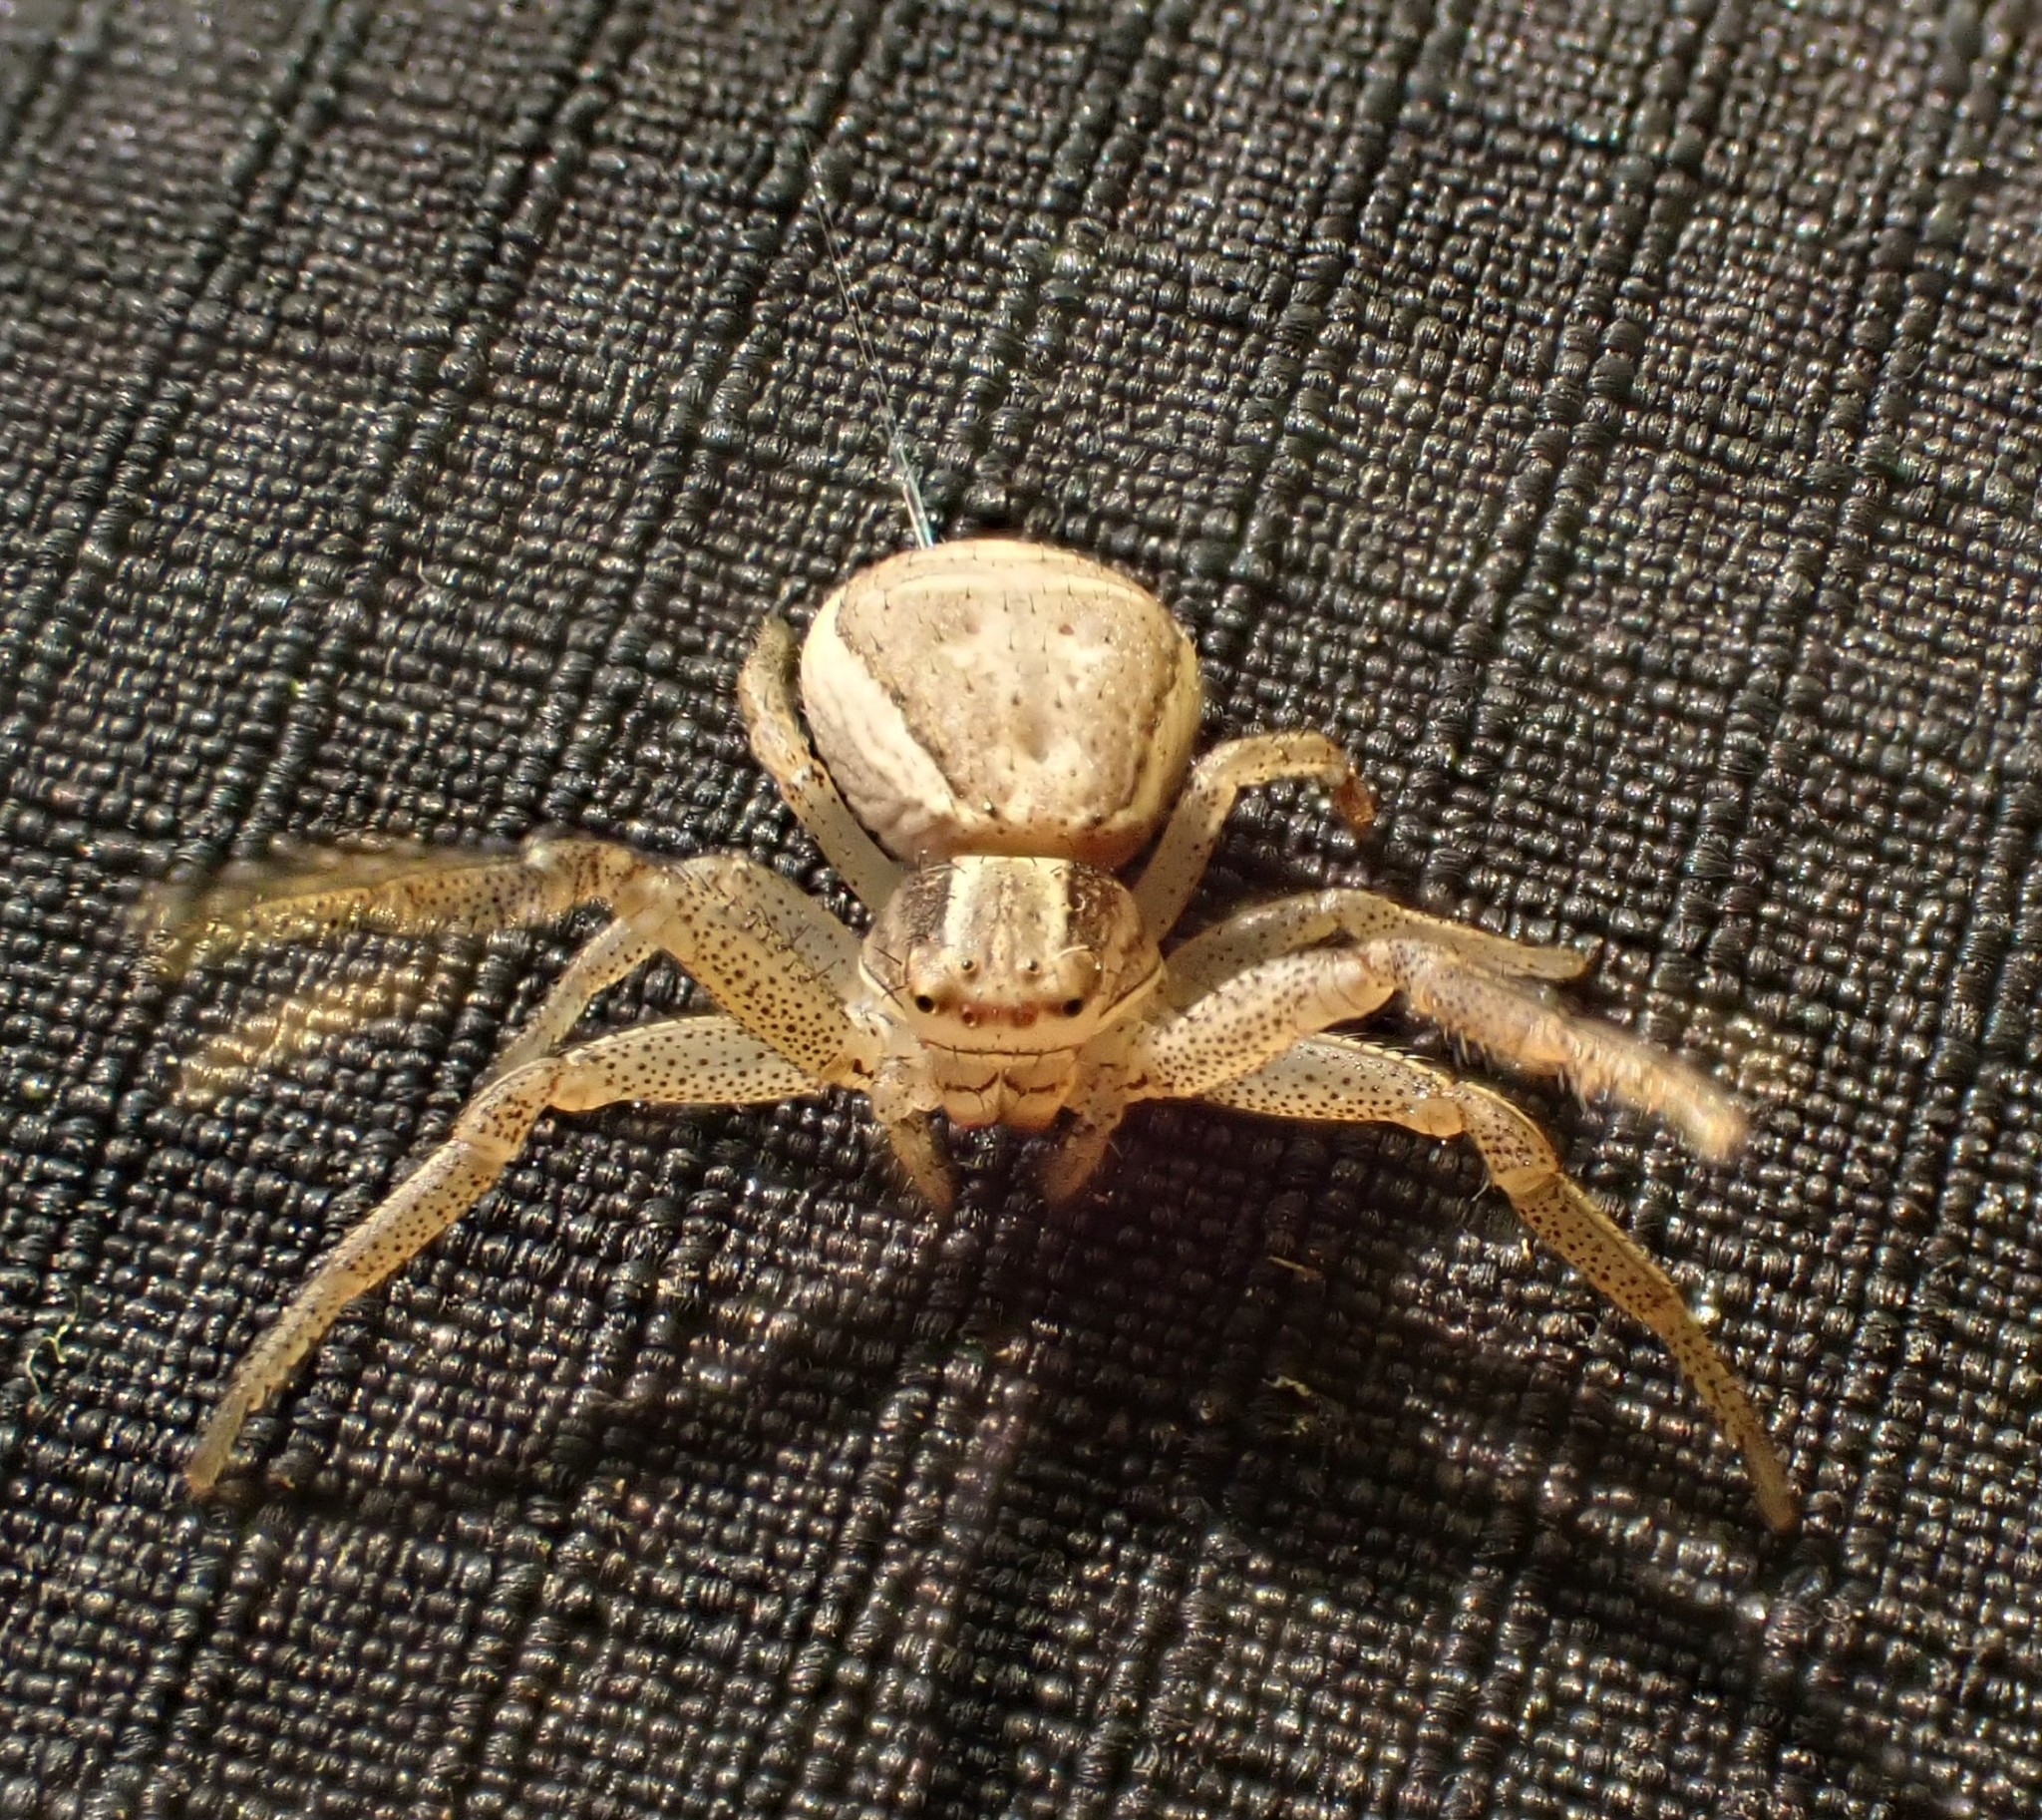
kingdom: Animalia
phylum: Arthropoda
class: Arachnida
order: Araneae
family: Thomisidae
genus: Xysticus
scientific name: Xysticus ulmi
